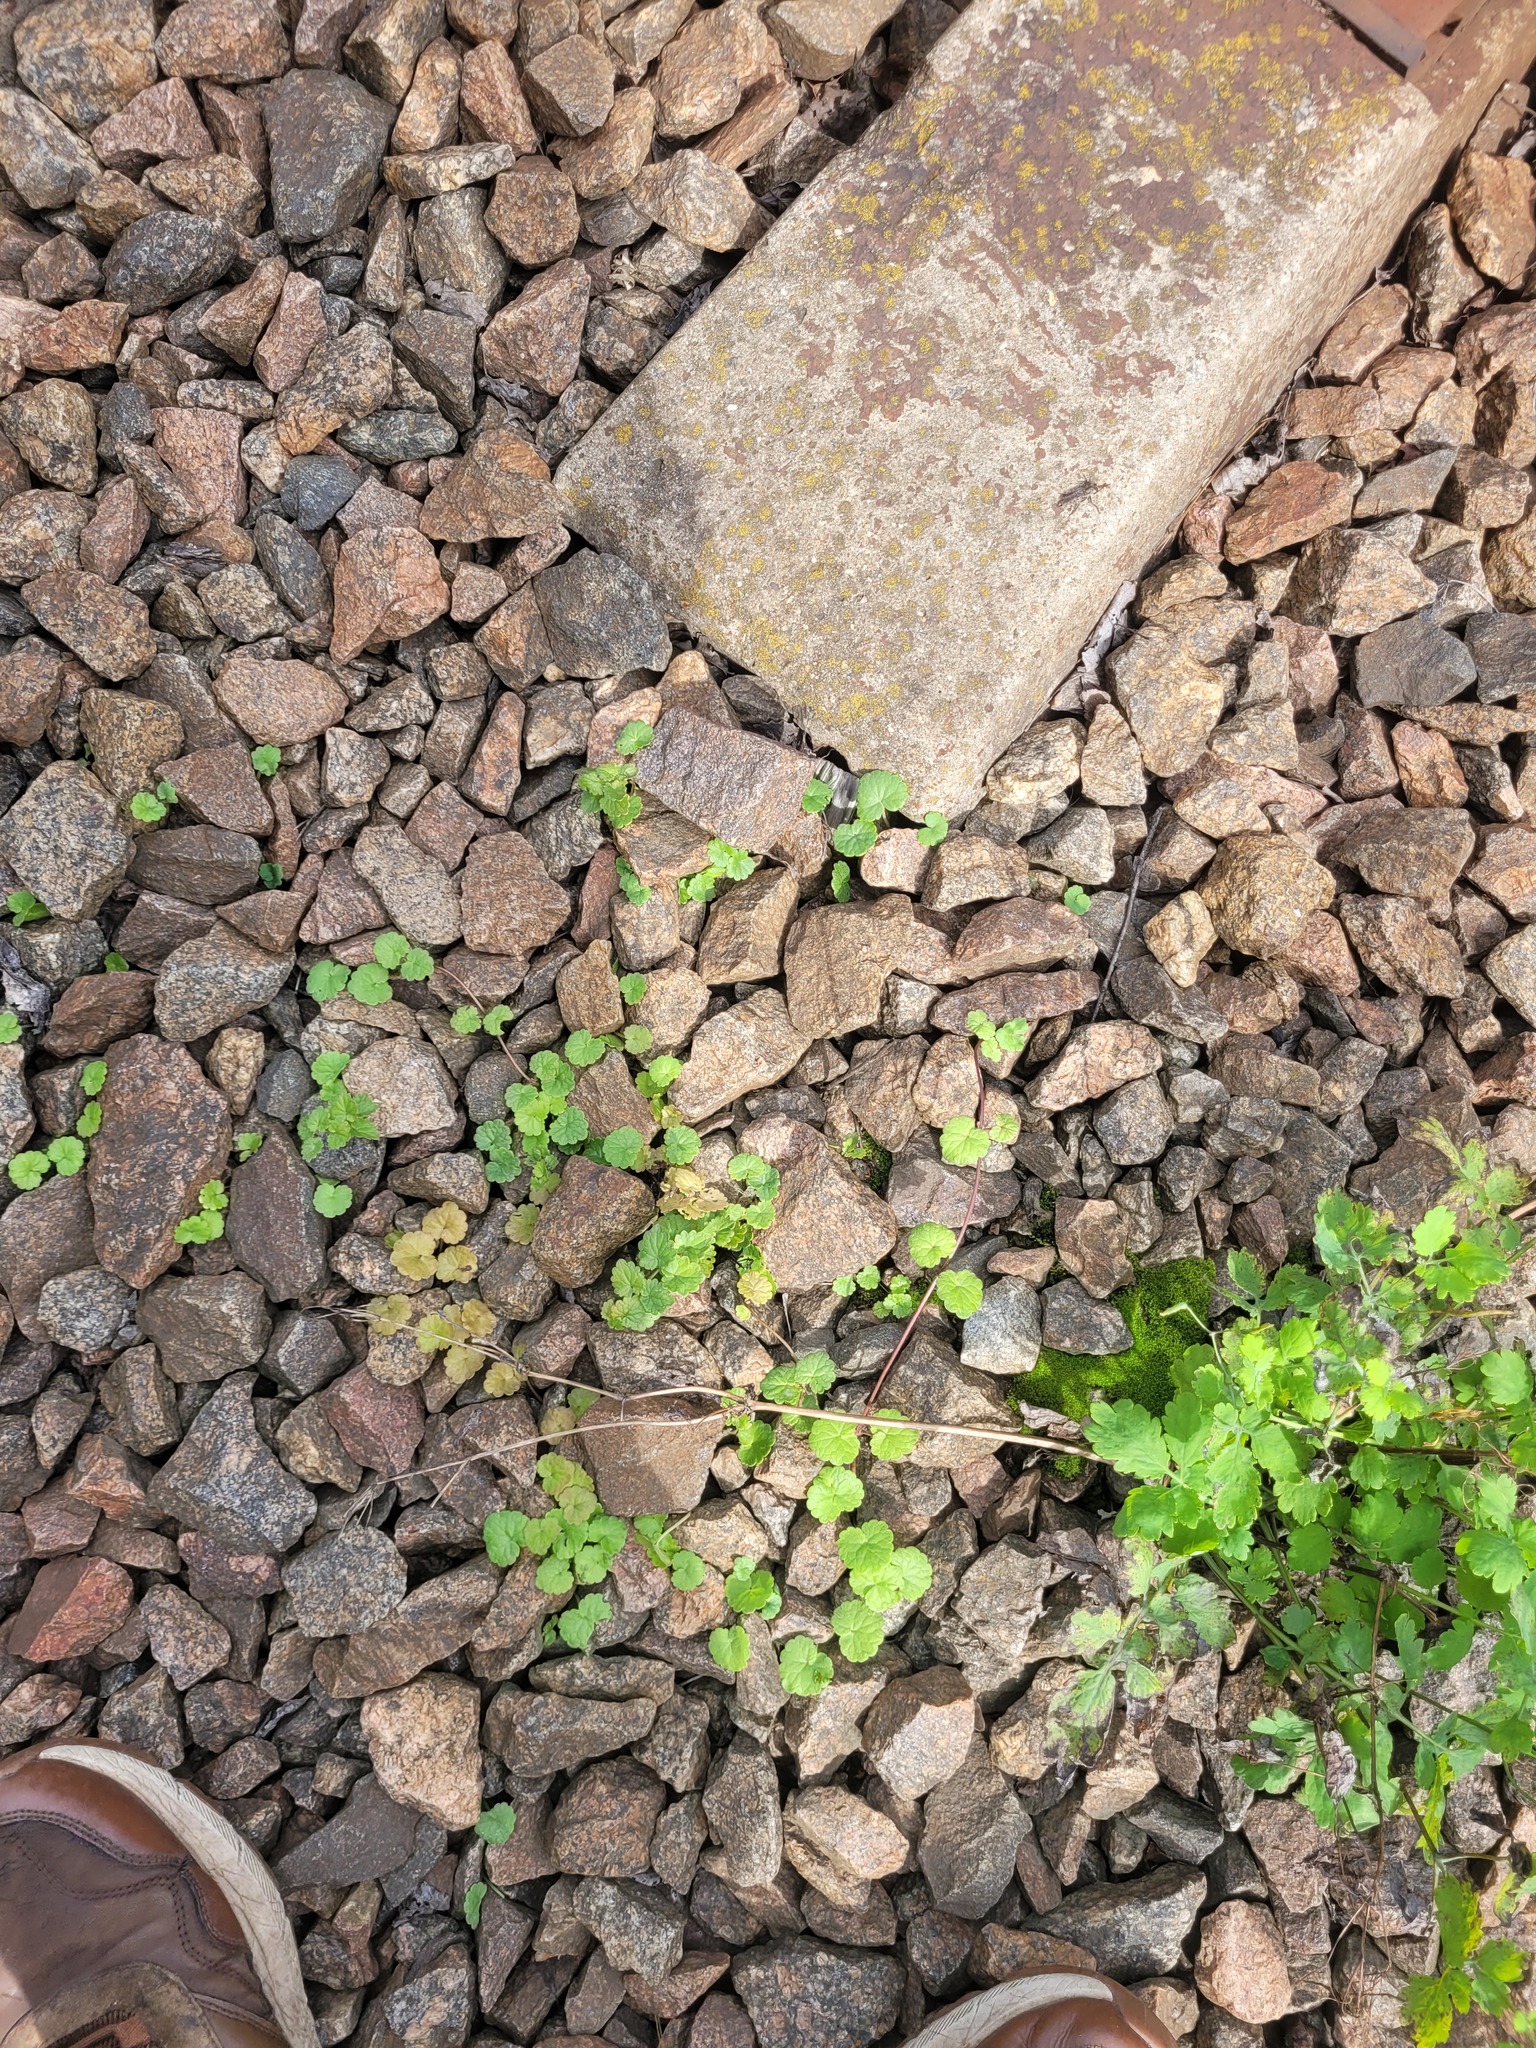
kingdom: Plantae
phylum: Tracheophyta
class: Magnoliopsida
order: Lamiales
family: Lamiaceae
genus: Glechoma
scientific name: Glechoma hederacea
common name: Ground ivy
